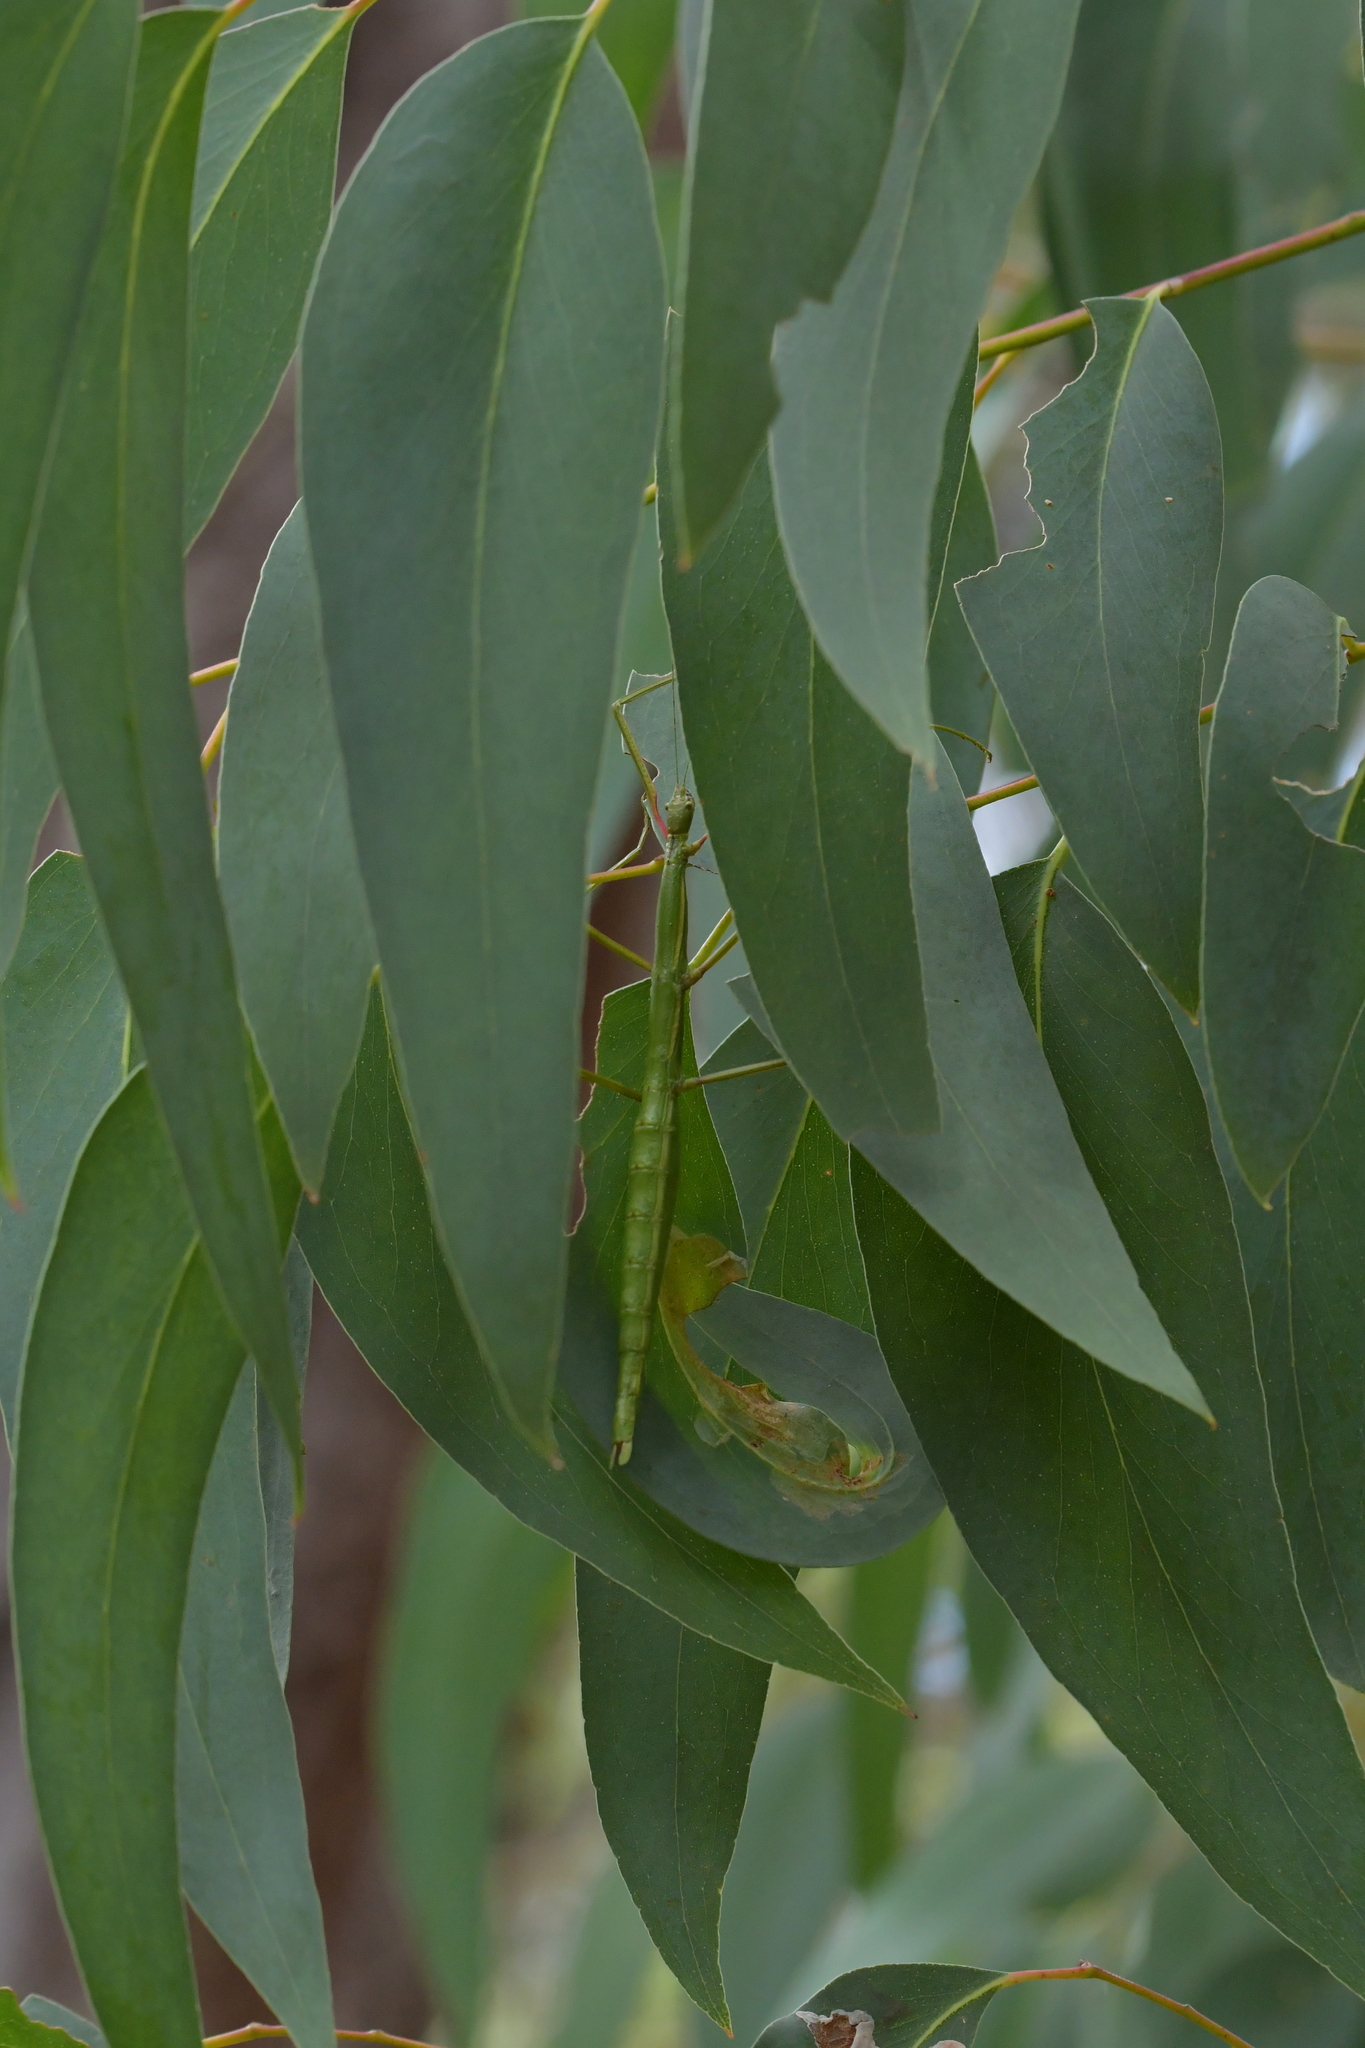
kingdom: Animalia
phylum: Arthropoda
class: Insecta
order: Phasmida
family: Phasmatidae
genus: Clitarchus
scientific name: Clitarchus hookeri
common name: Smooth stick insect
